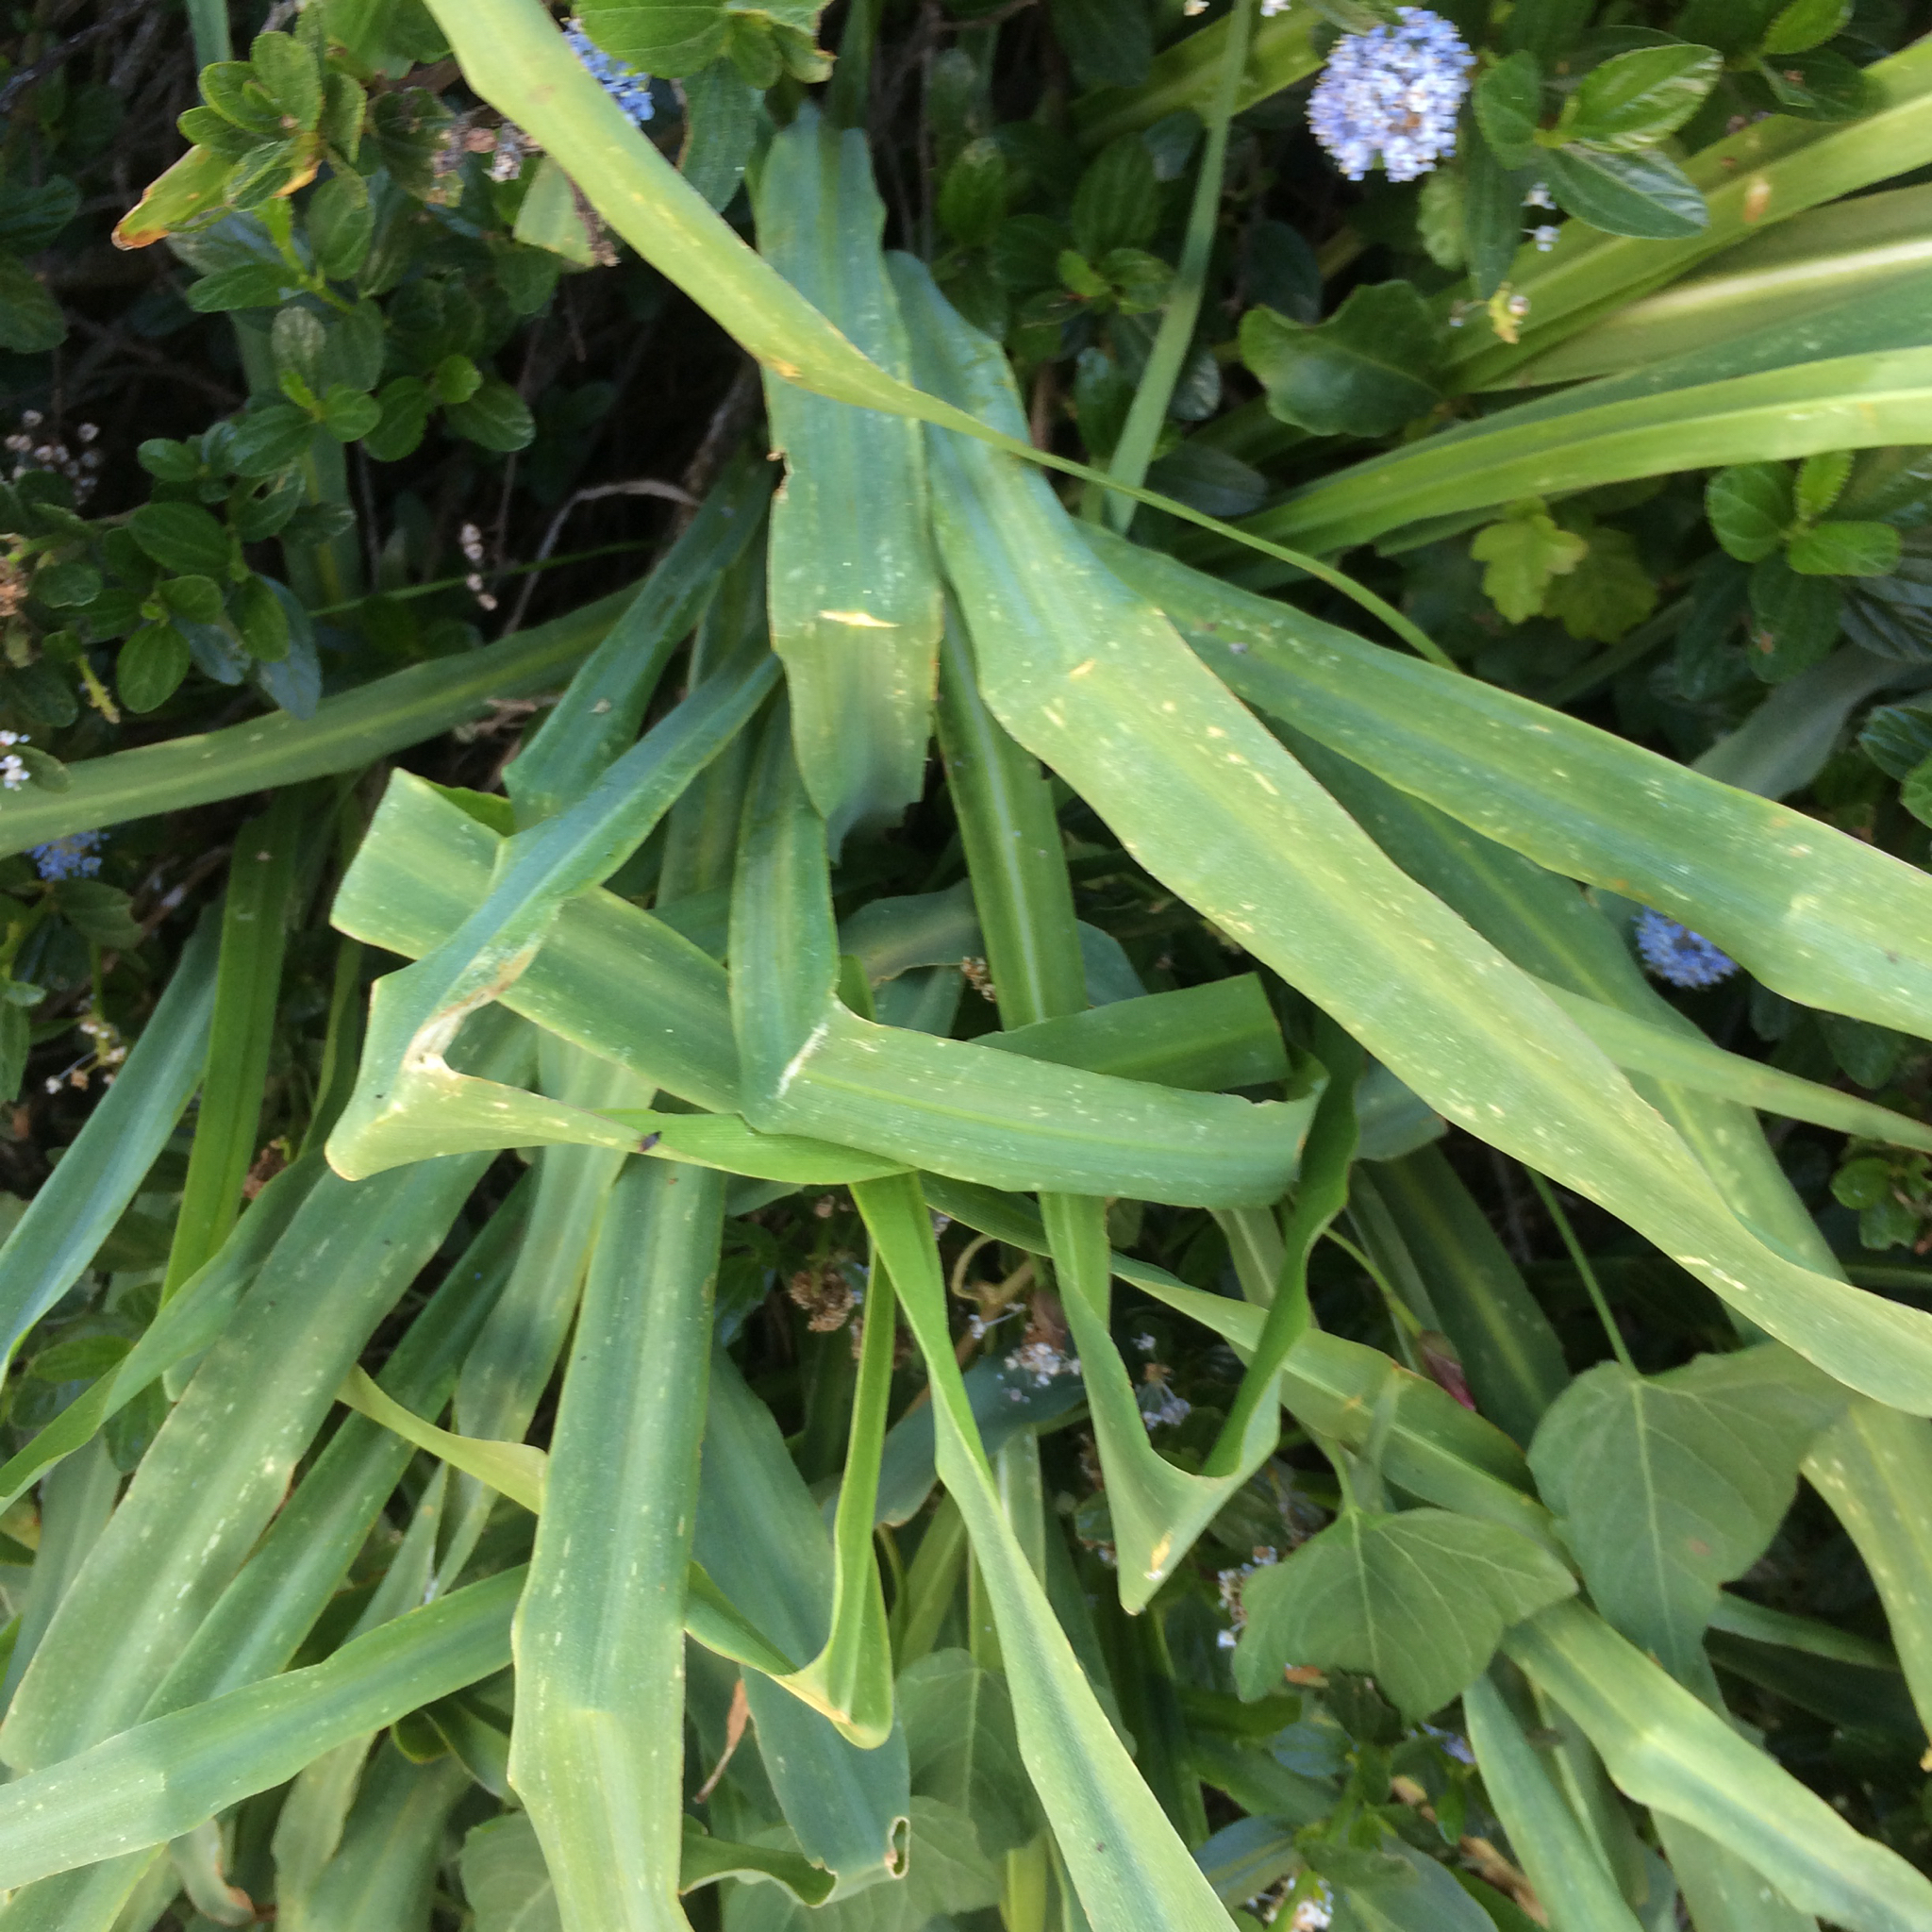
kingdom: Plantae
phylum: Tracheophyta
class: Liliopsida
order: Asparagales
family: Asparagaceae
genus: Chlorogalum
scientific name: Chlorogalum pomeridianum
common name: Amole
